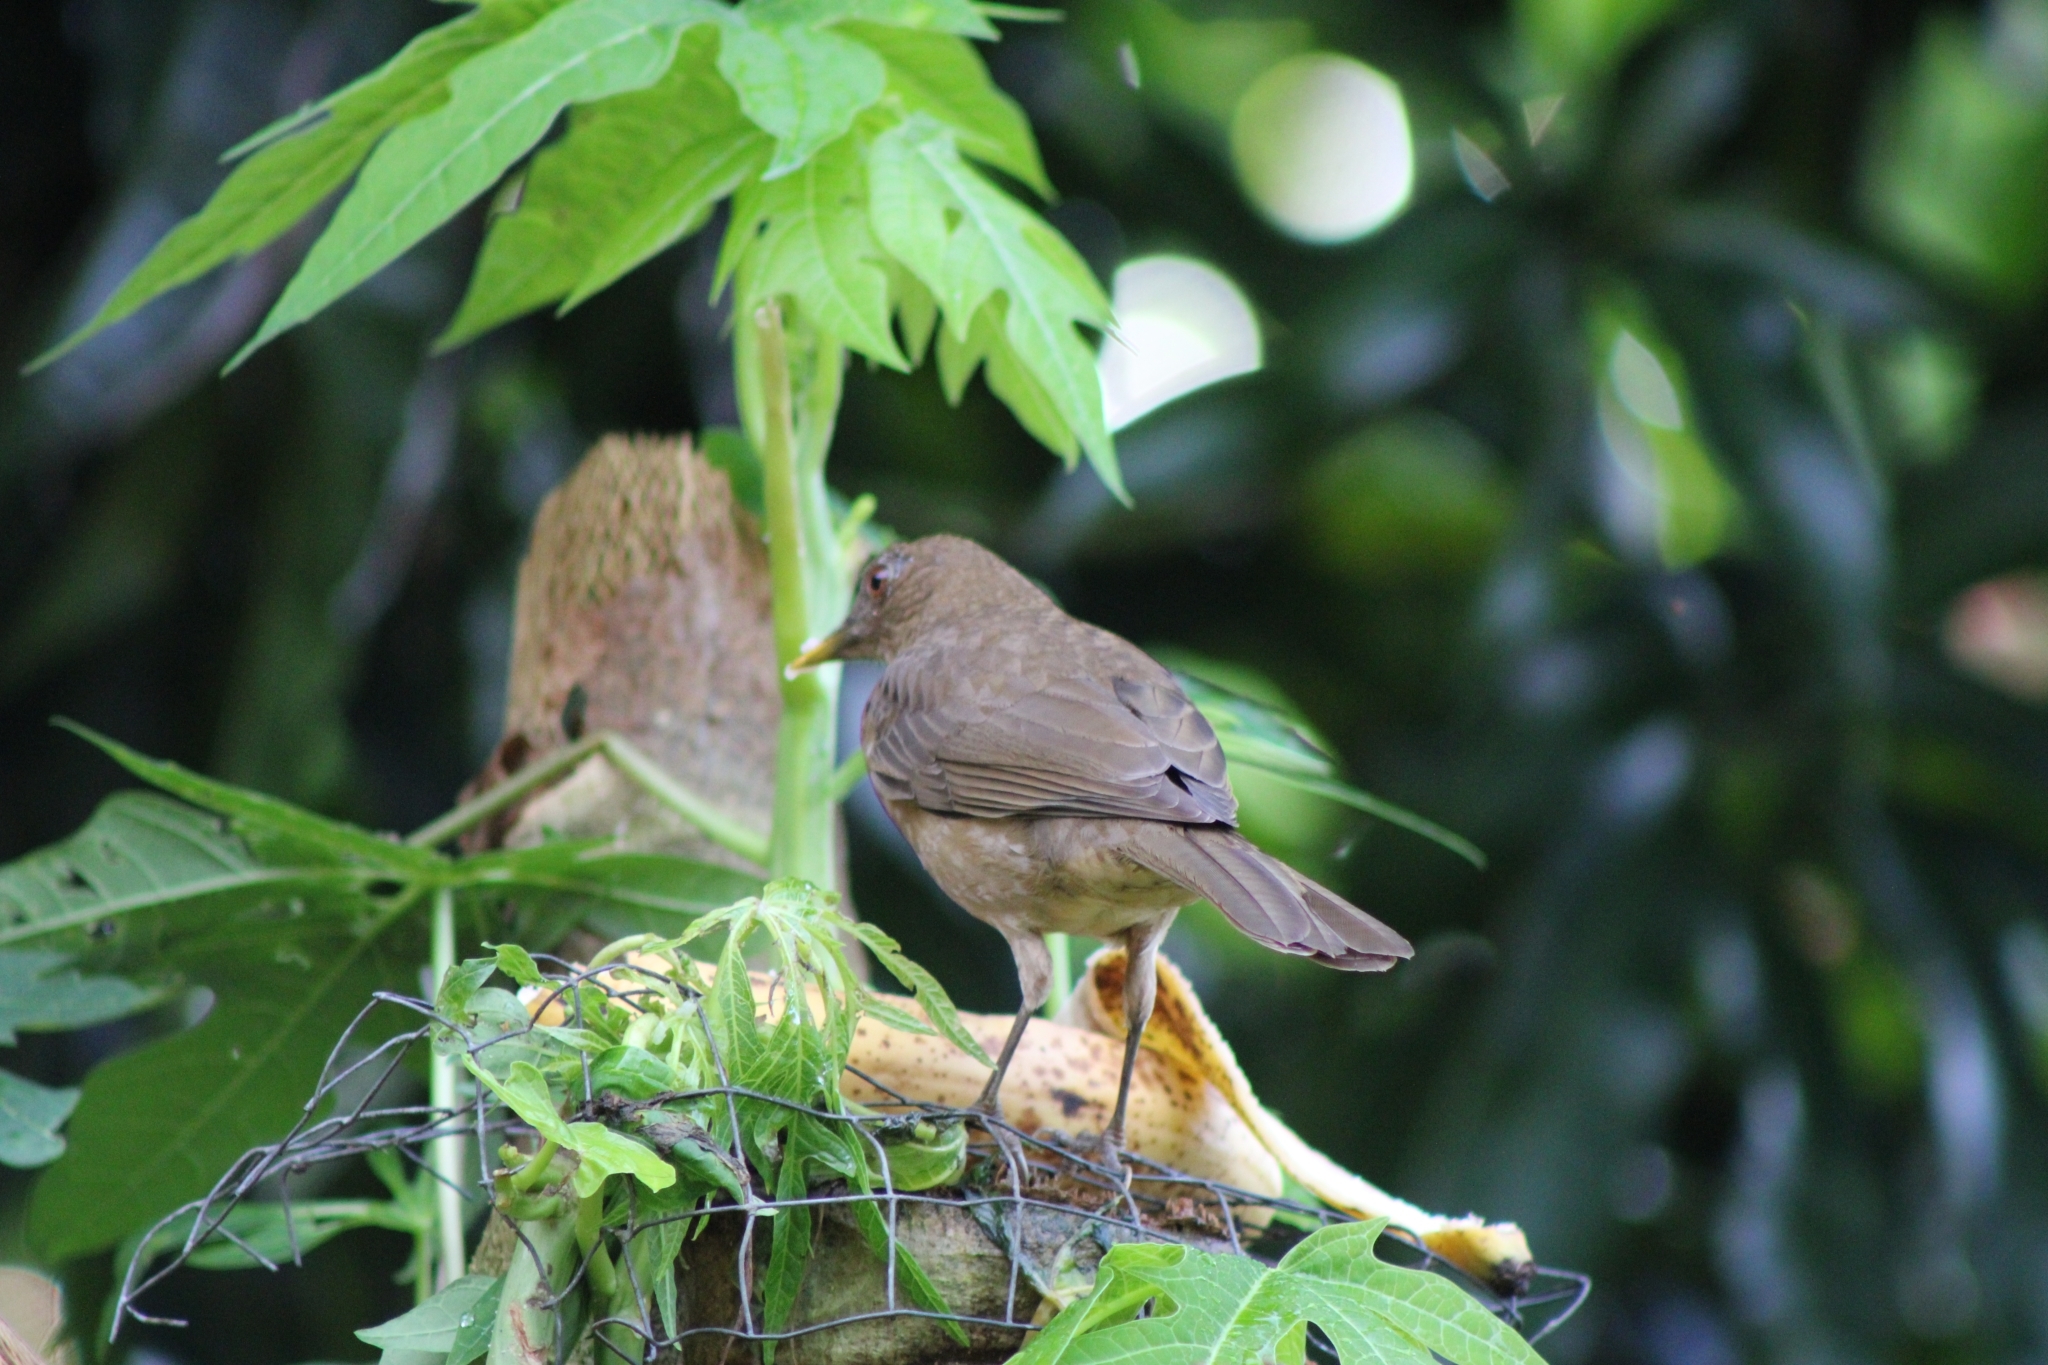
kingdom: Animalia
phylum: Chordata
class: Aves
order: Passeriformes
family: Turdidae
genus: Turdus
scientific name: Turdus grayi
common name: Clay-colored thrush
